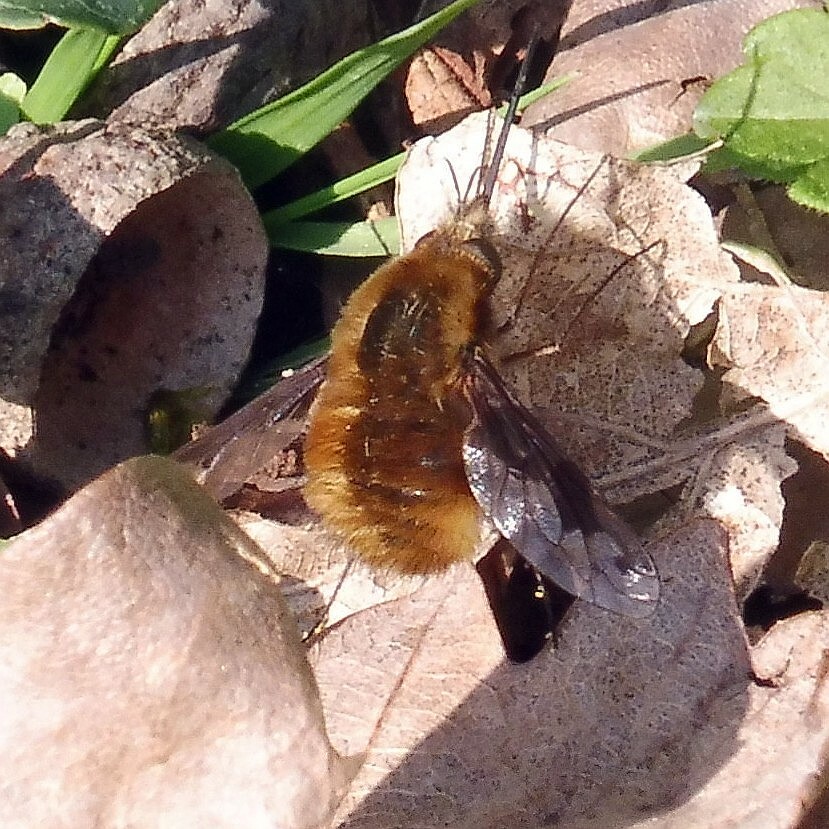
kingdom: Animalia
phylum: Arthropoda
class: Insecta
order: Diptera
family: Bombyliidae
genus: Bombylius
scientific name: Bombylius major
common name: Bee fly
